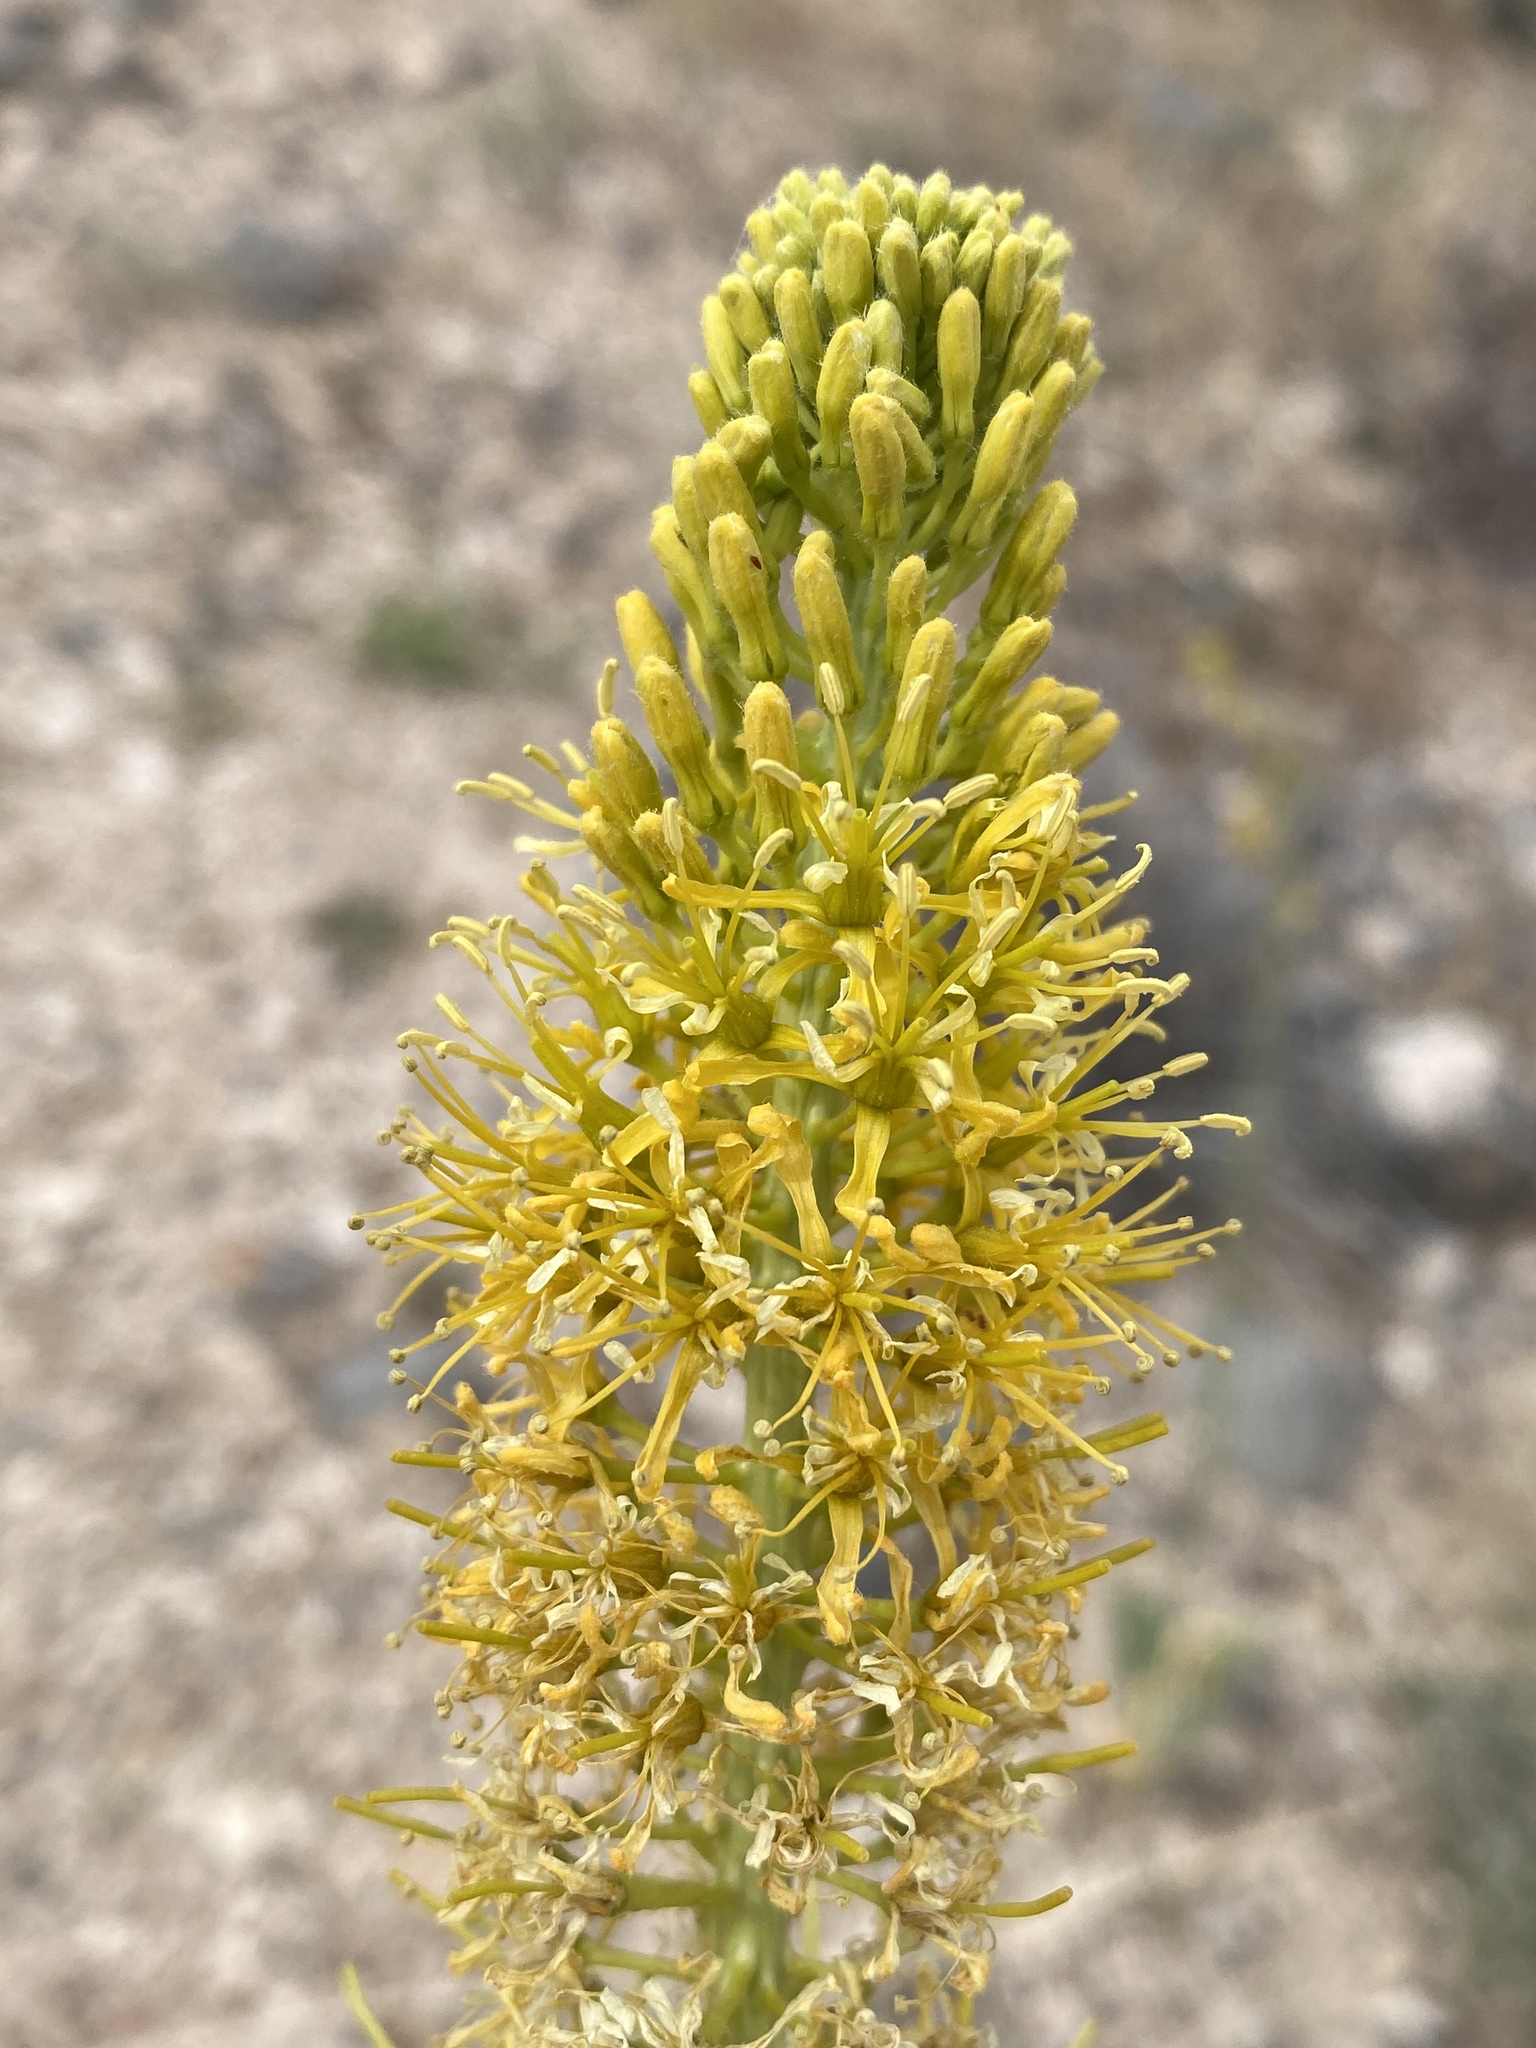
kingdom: Plantae
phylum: Tracheophyta
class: Magnoliopsida
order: Brassicales
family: Brassicaceae
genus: Stanleya
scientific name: Stanleya elata
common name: Panamint prince's plume
